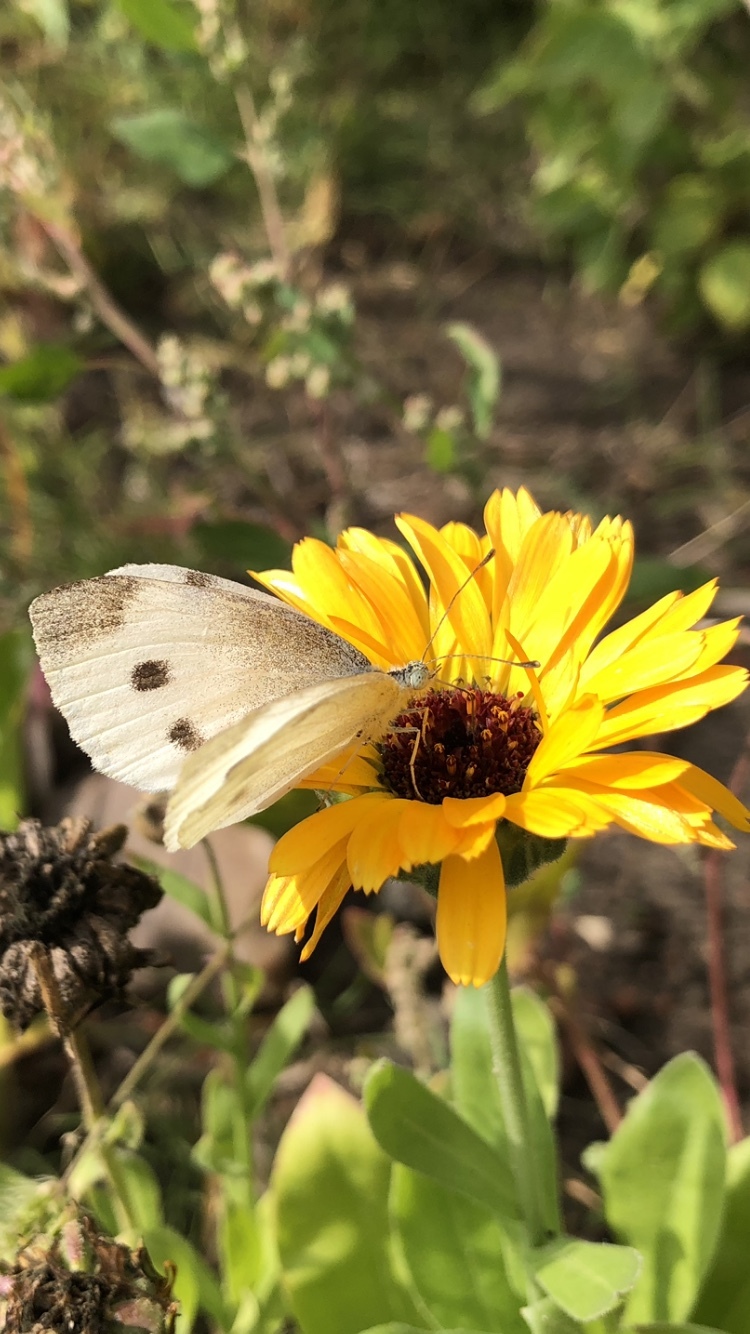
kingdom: Animalia
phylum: Arthropoda
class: Insecta
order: Lepidoptera
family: Pieridae
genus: Pieris
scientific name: Pieris rapae
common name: Small white
